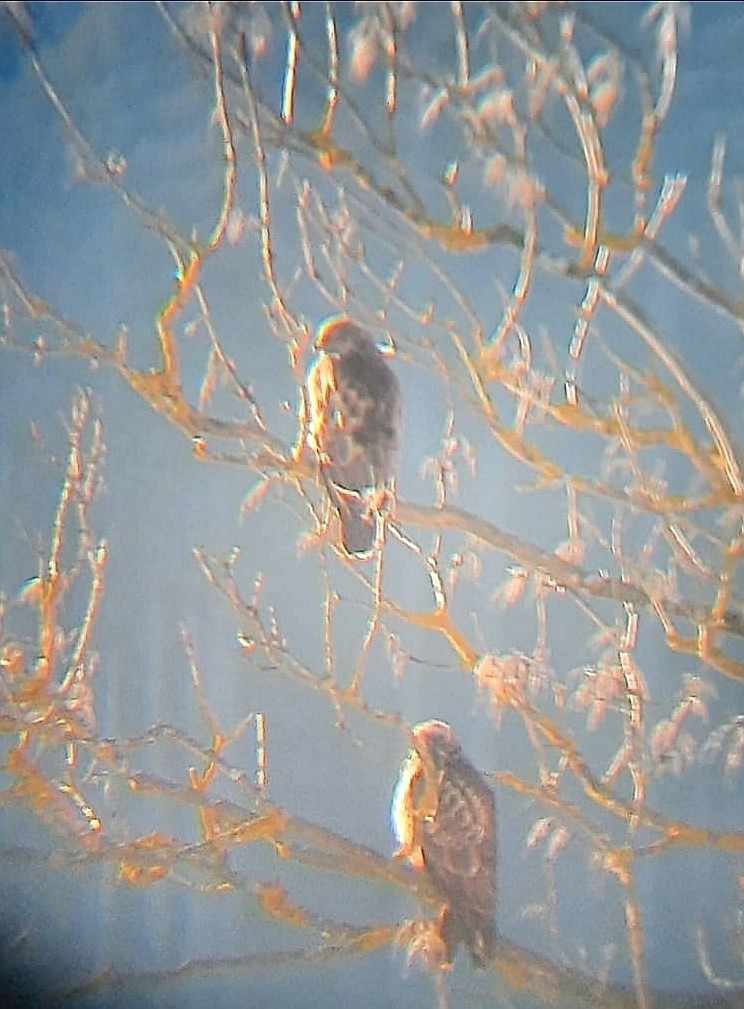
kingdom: Animalia
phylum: Chordata
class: Aves
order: Accipitriformes
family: Accipitridae
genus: Buteo
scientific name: Buteo buteo
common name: Common buzzard
